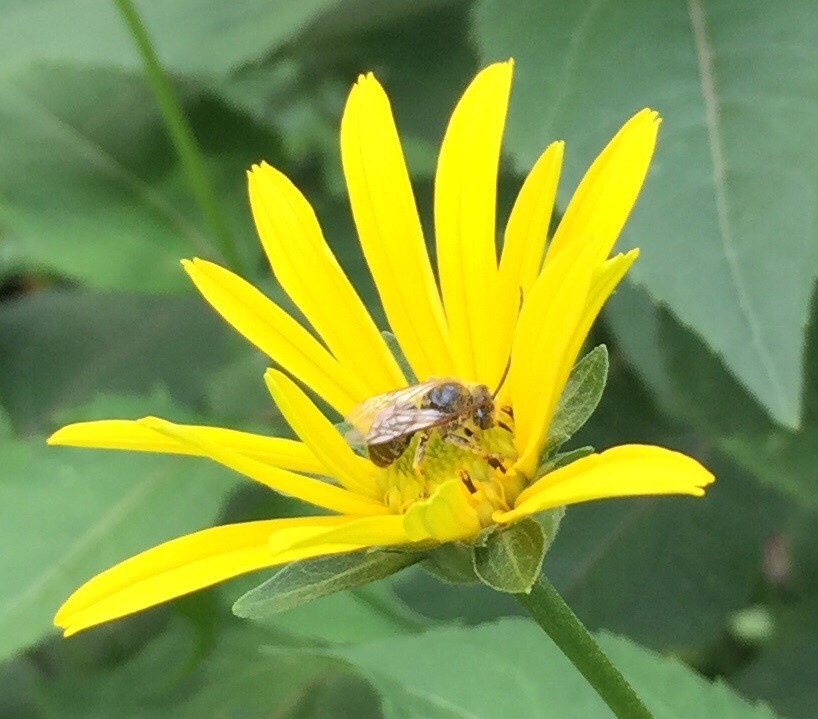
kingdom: Animalia
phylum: Arthropoda
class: Insecta
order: Hymenoptera
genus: Eumelissodes
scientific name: Eumelissodes
